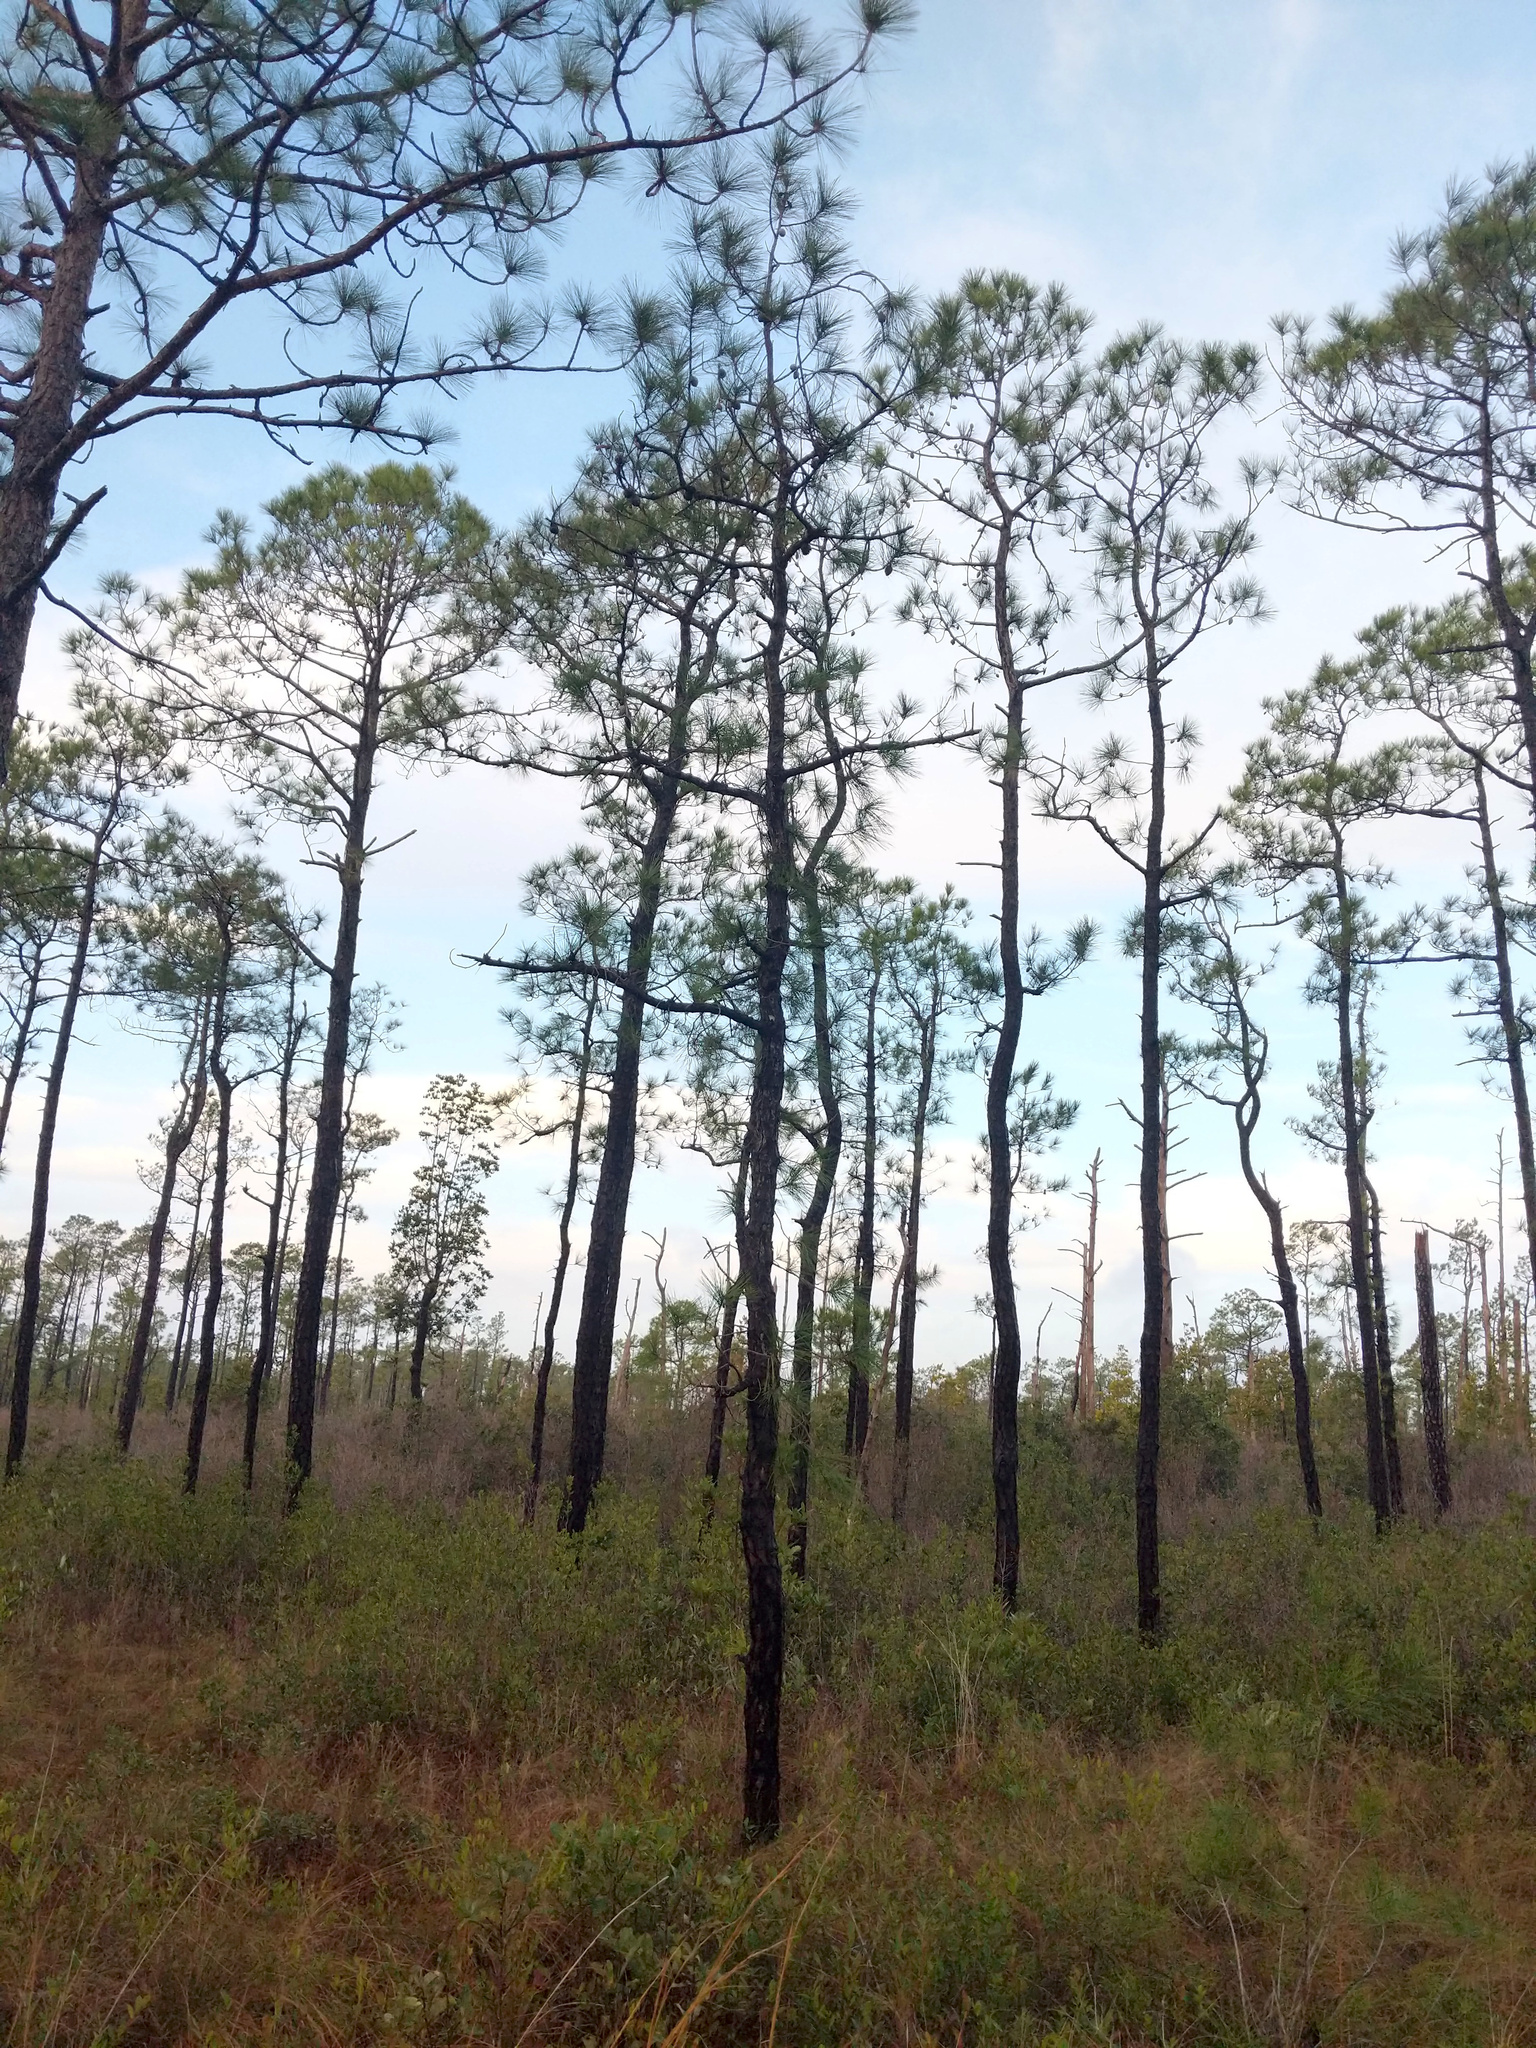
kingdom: Plantae
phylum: Tracheophyta
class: Pinopsida
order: Pinales
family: Pinaceae
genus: Pinus
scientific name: Pinus serotina
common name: Marsh pine
